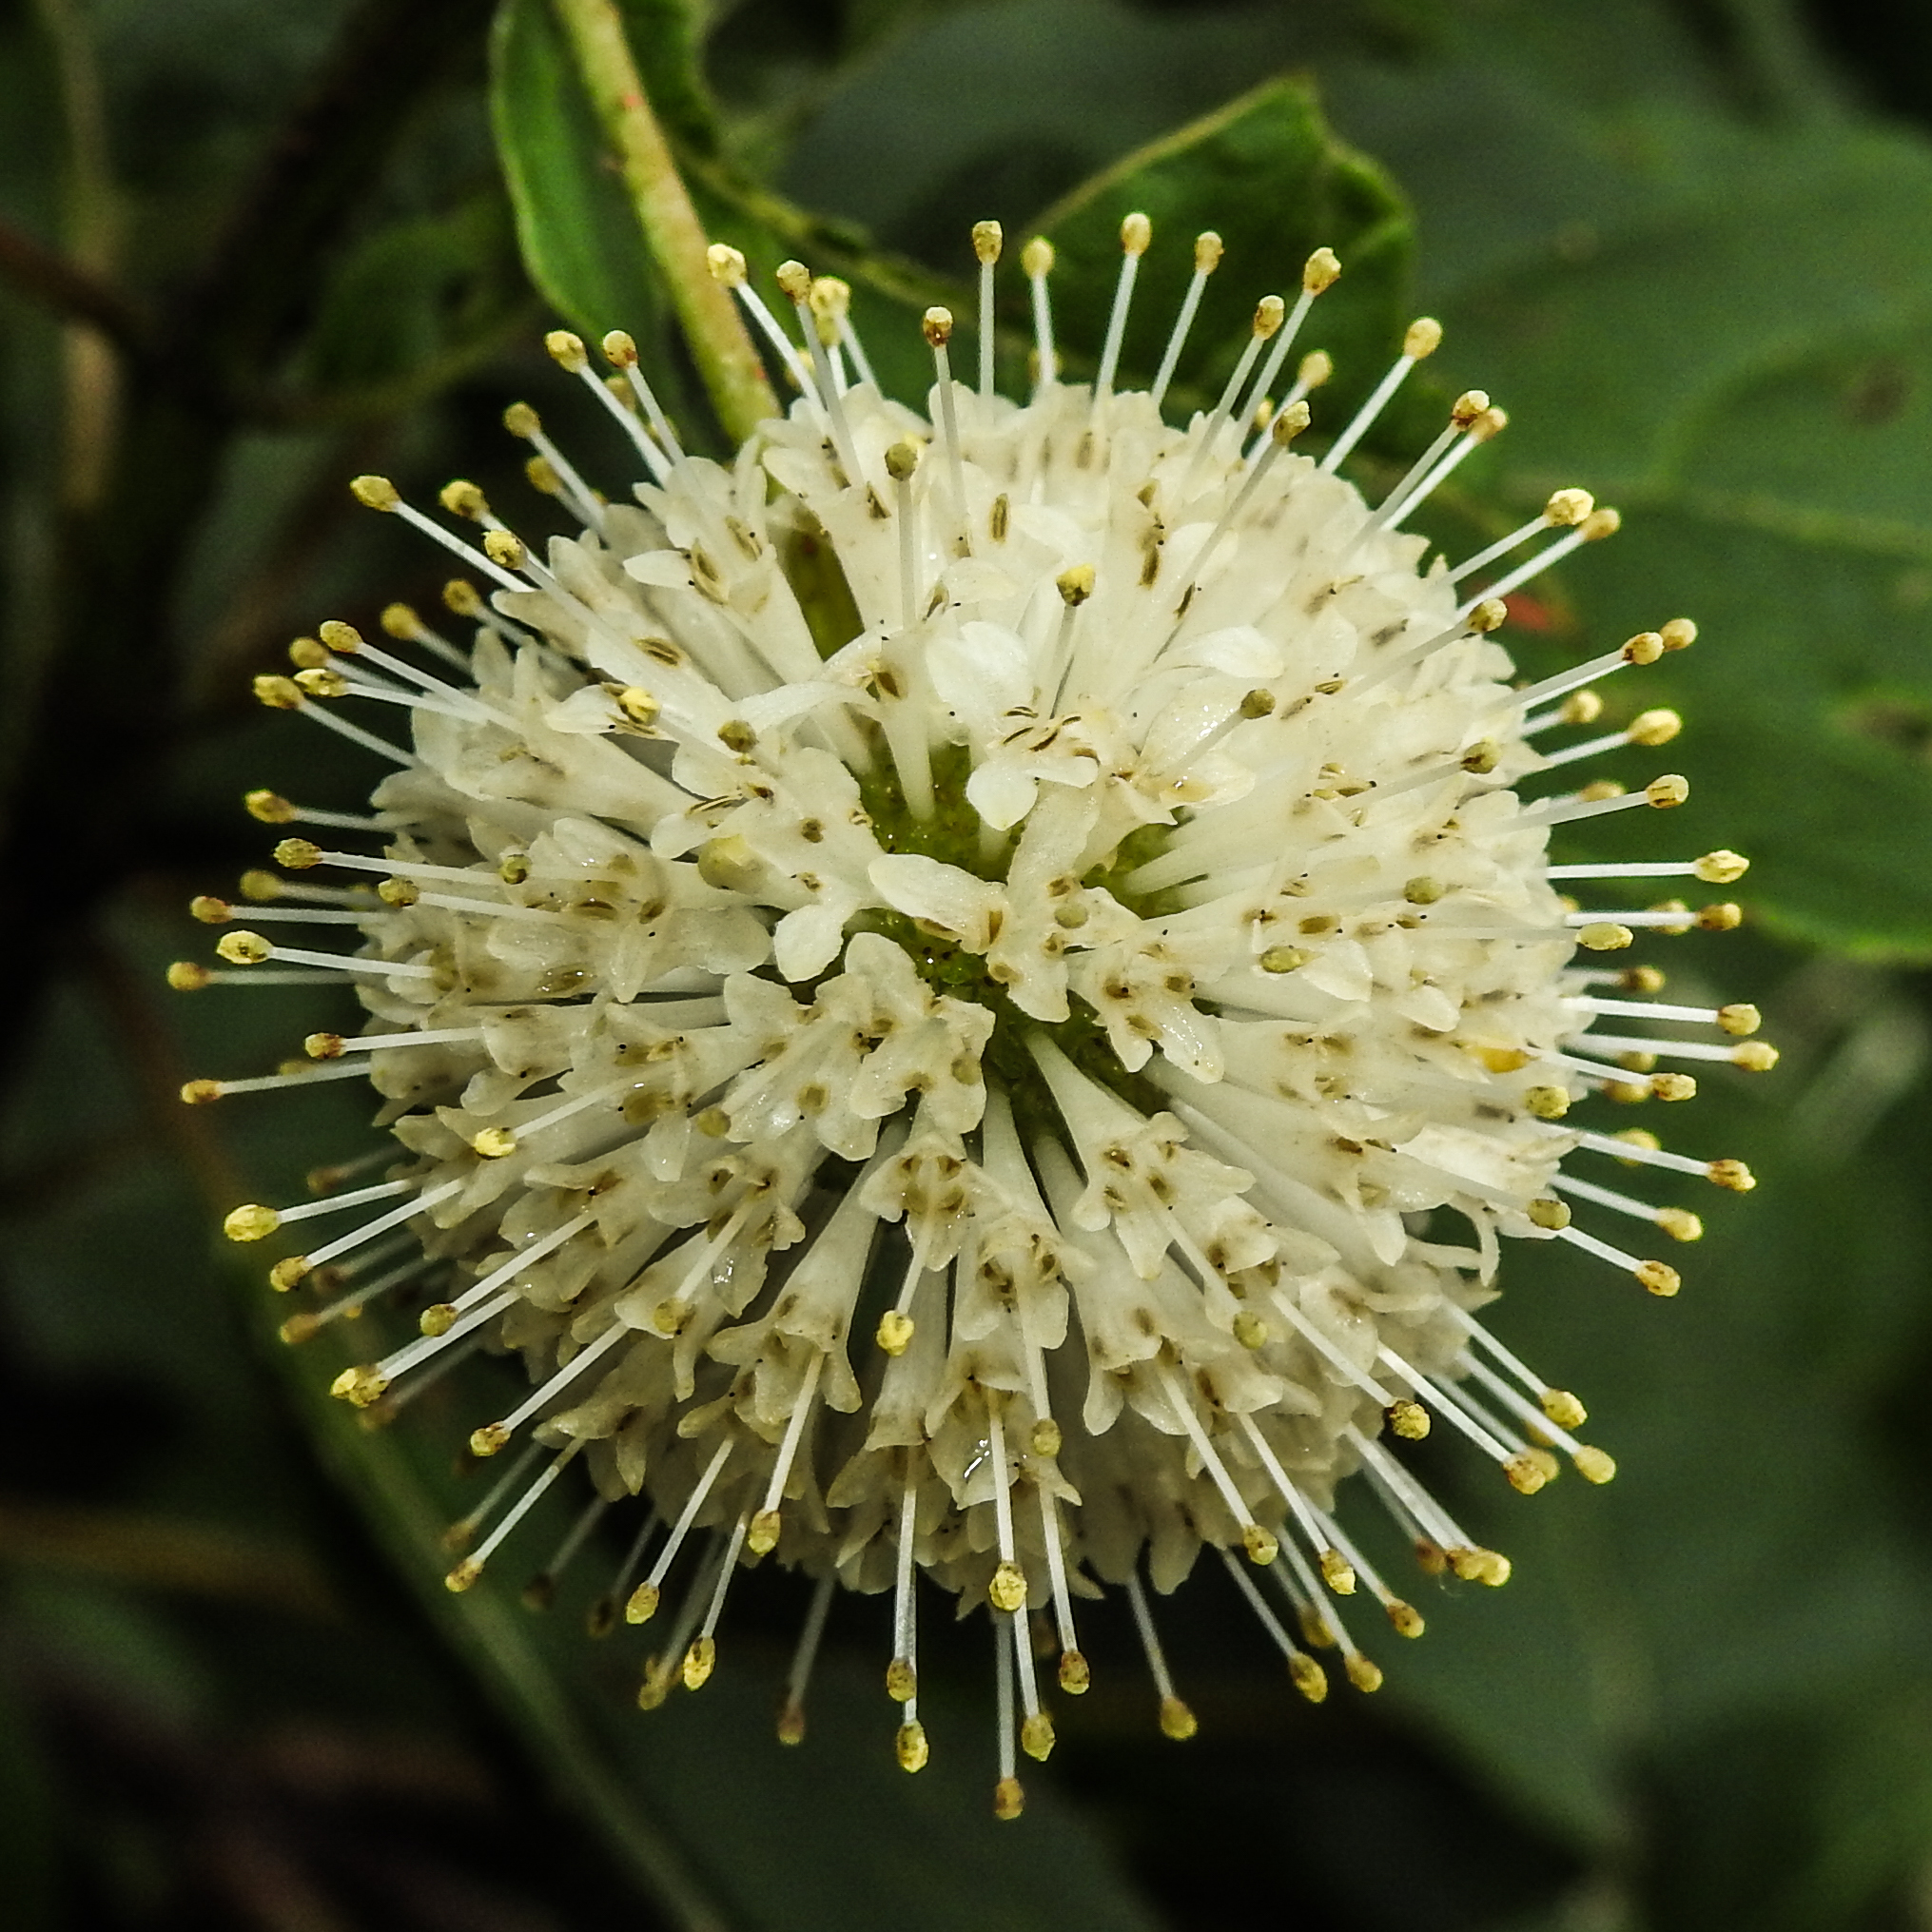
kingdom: Plantae
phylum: Tracheophyta
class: Magnoliopsida
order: Gentianales
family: Rubiaceae
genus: Cephalanthus
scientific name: Cephalanthus occidentalis
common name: Button-willow
